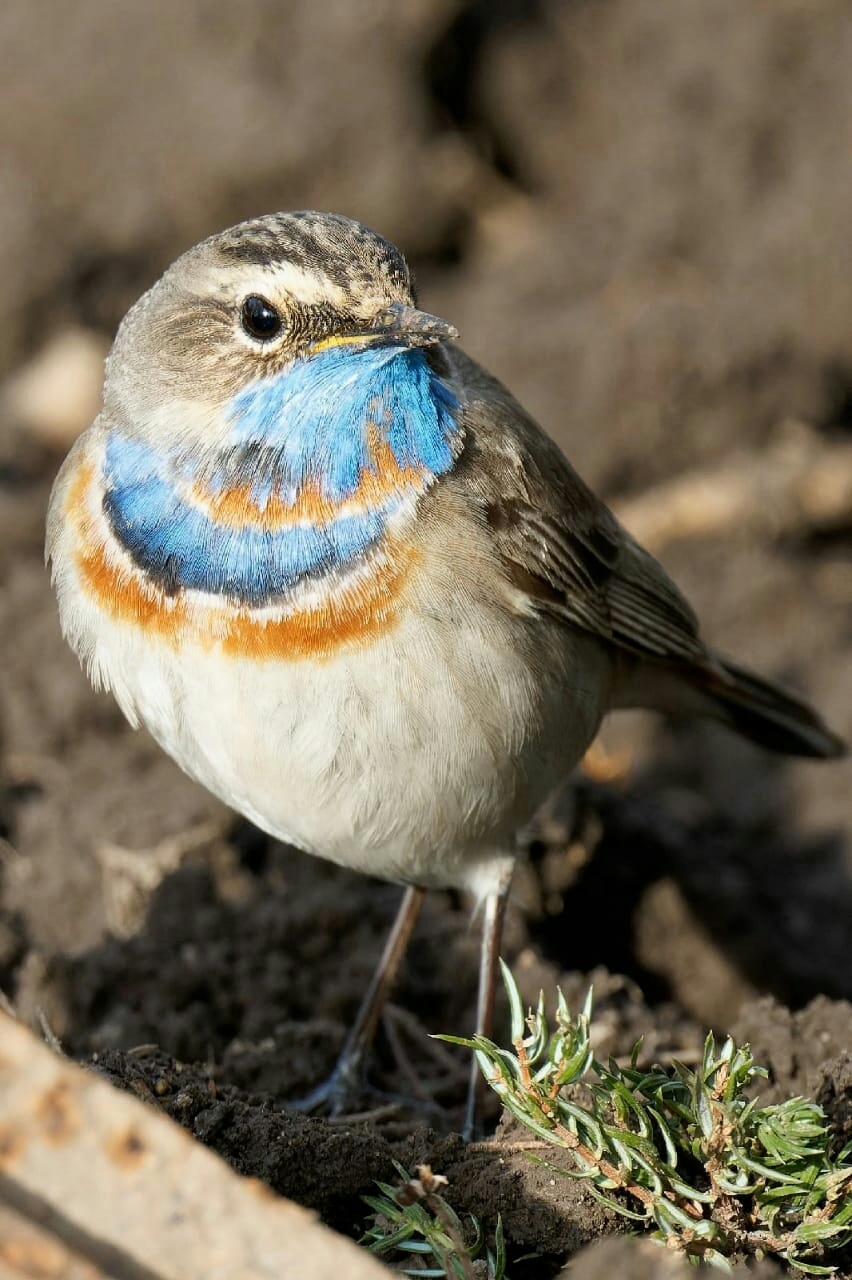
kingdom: Animalia
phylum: Chordata
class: Aves
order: Passeriformes
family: Muscicapidae
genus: Luscinia
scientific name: Luscinia svecica
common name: Bluethroat
